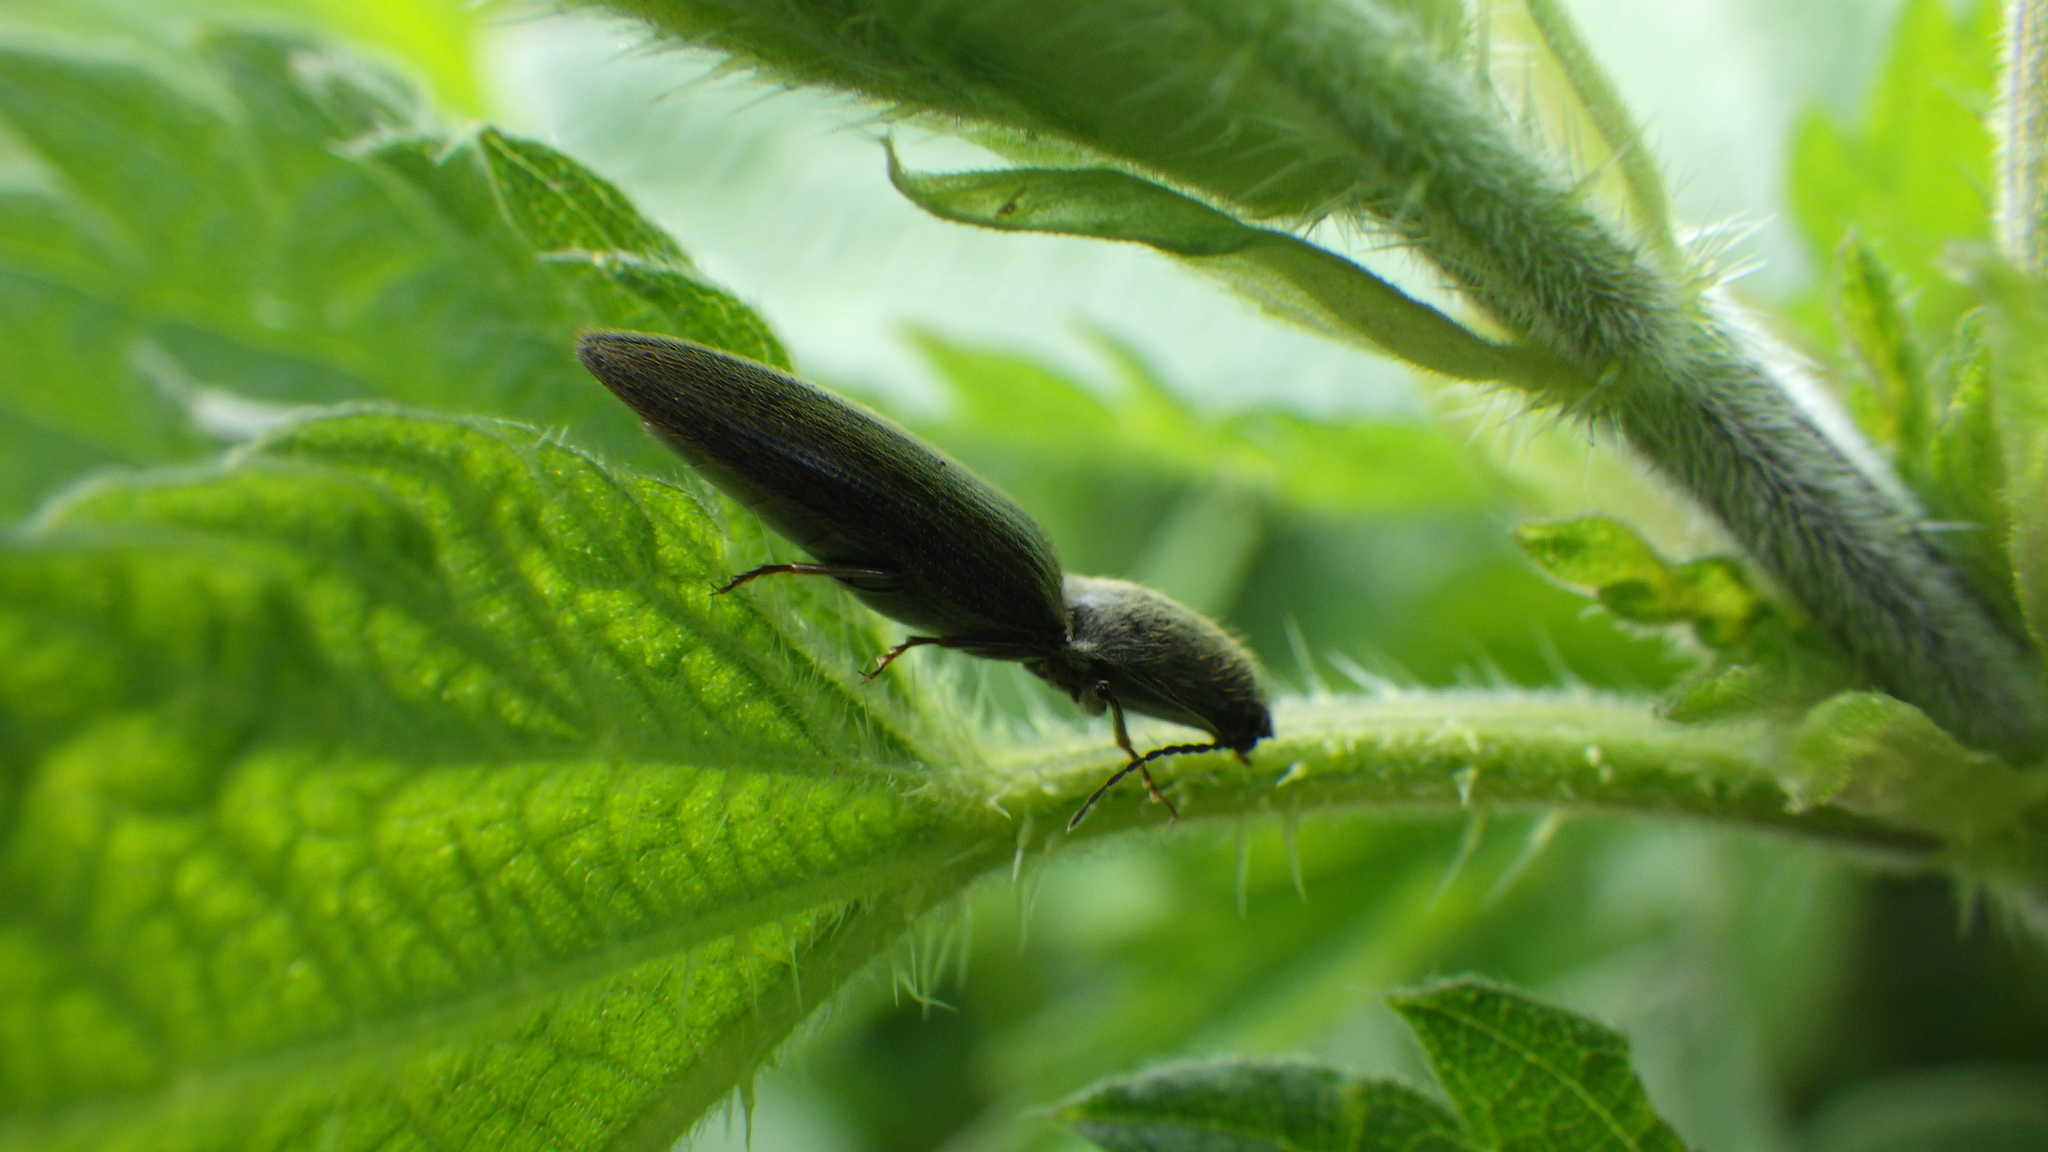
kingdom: Animalia
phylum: Arthropoda
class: Insecta
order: Coleoptera
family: Elateridae
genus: Athous
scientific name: Athous haemorrhoidalis
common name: Red-brown click beetle
